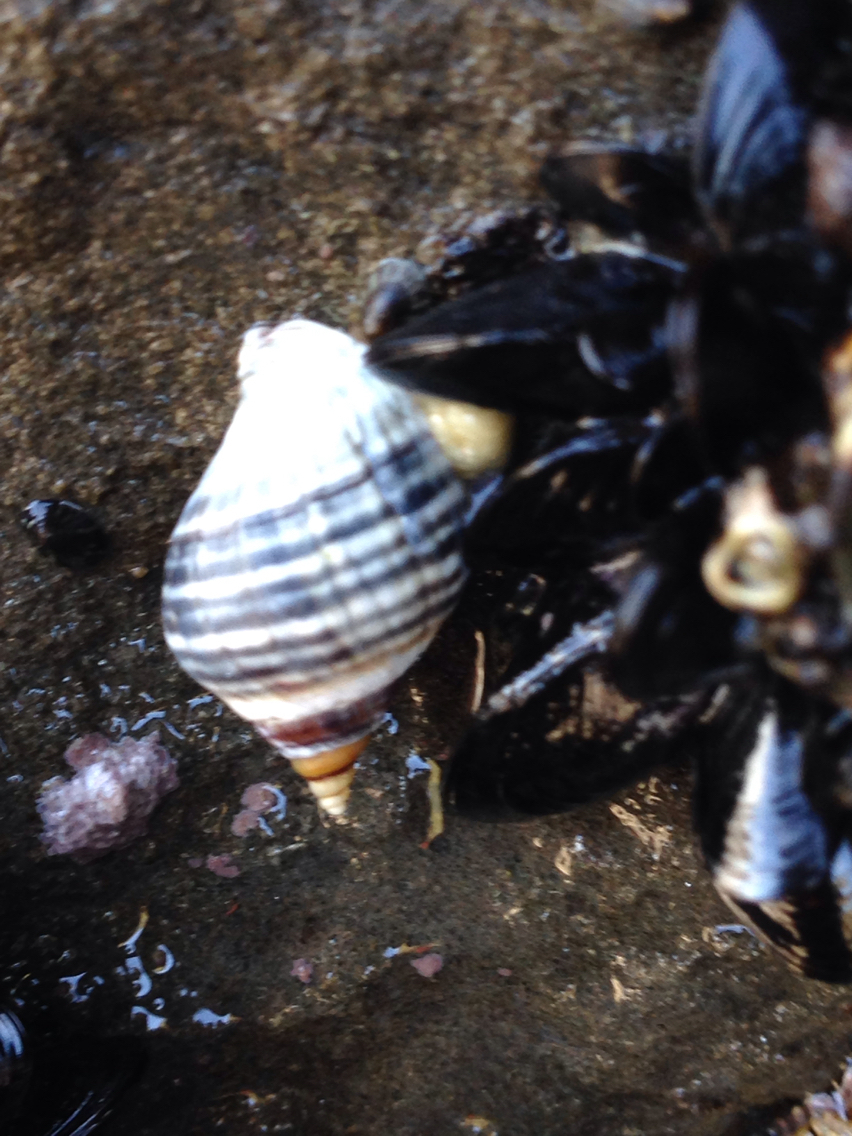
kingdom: Animalia
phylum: Mollusca
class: Gastropoda
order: Neogastropoda
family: Muricidae
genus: Haustrum
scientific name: Haustrum albomarginatum
